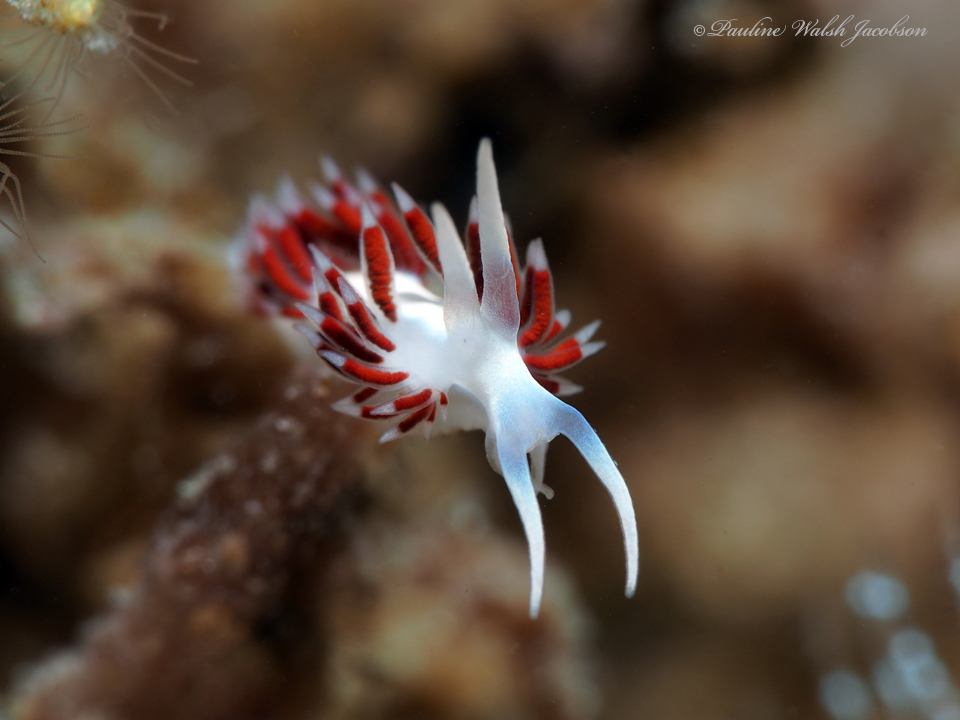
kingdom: Animalia
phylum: Mollusca
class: Gastropoda
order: Nudibranchia
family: Flabellinidae
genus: Flabellina
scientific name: Flabellina dushia
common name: Dushia flabellina
